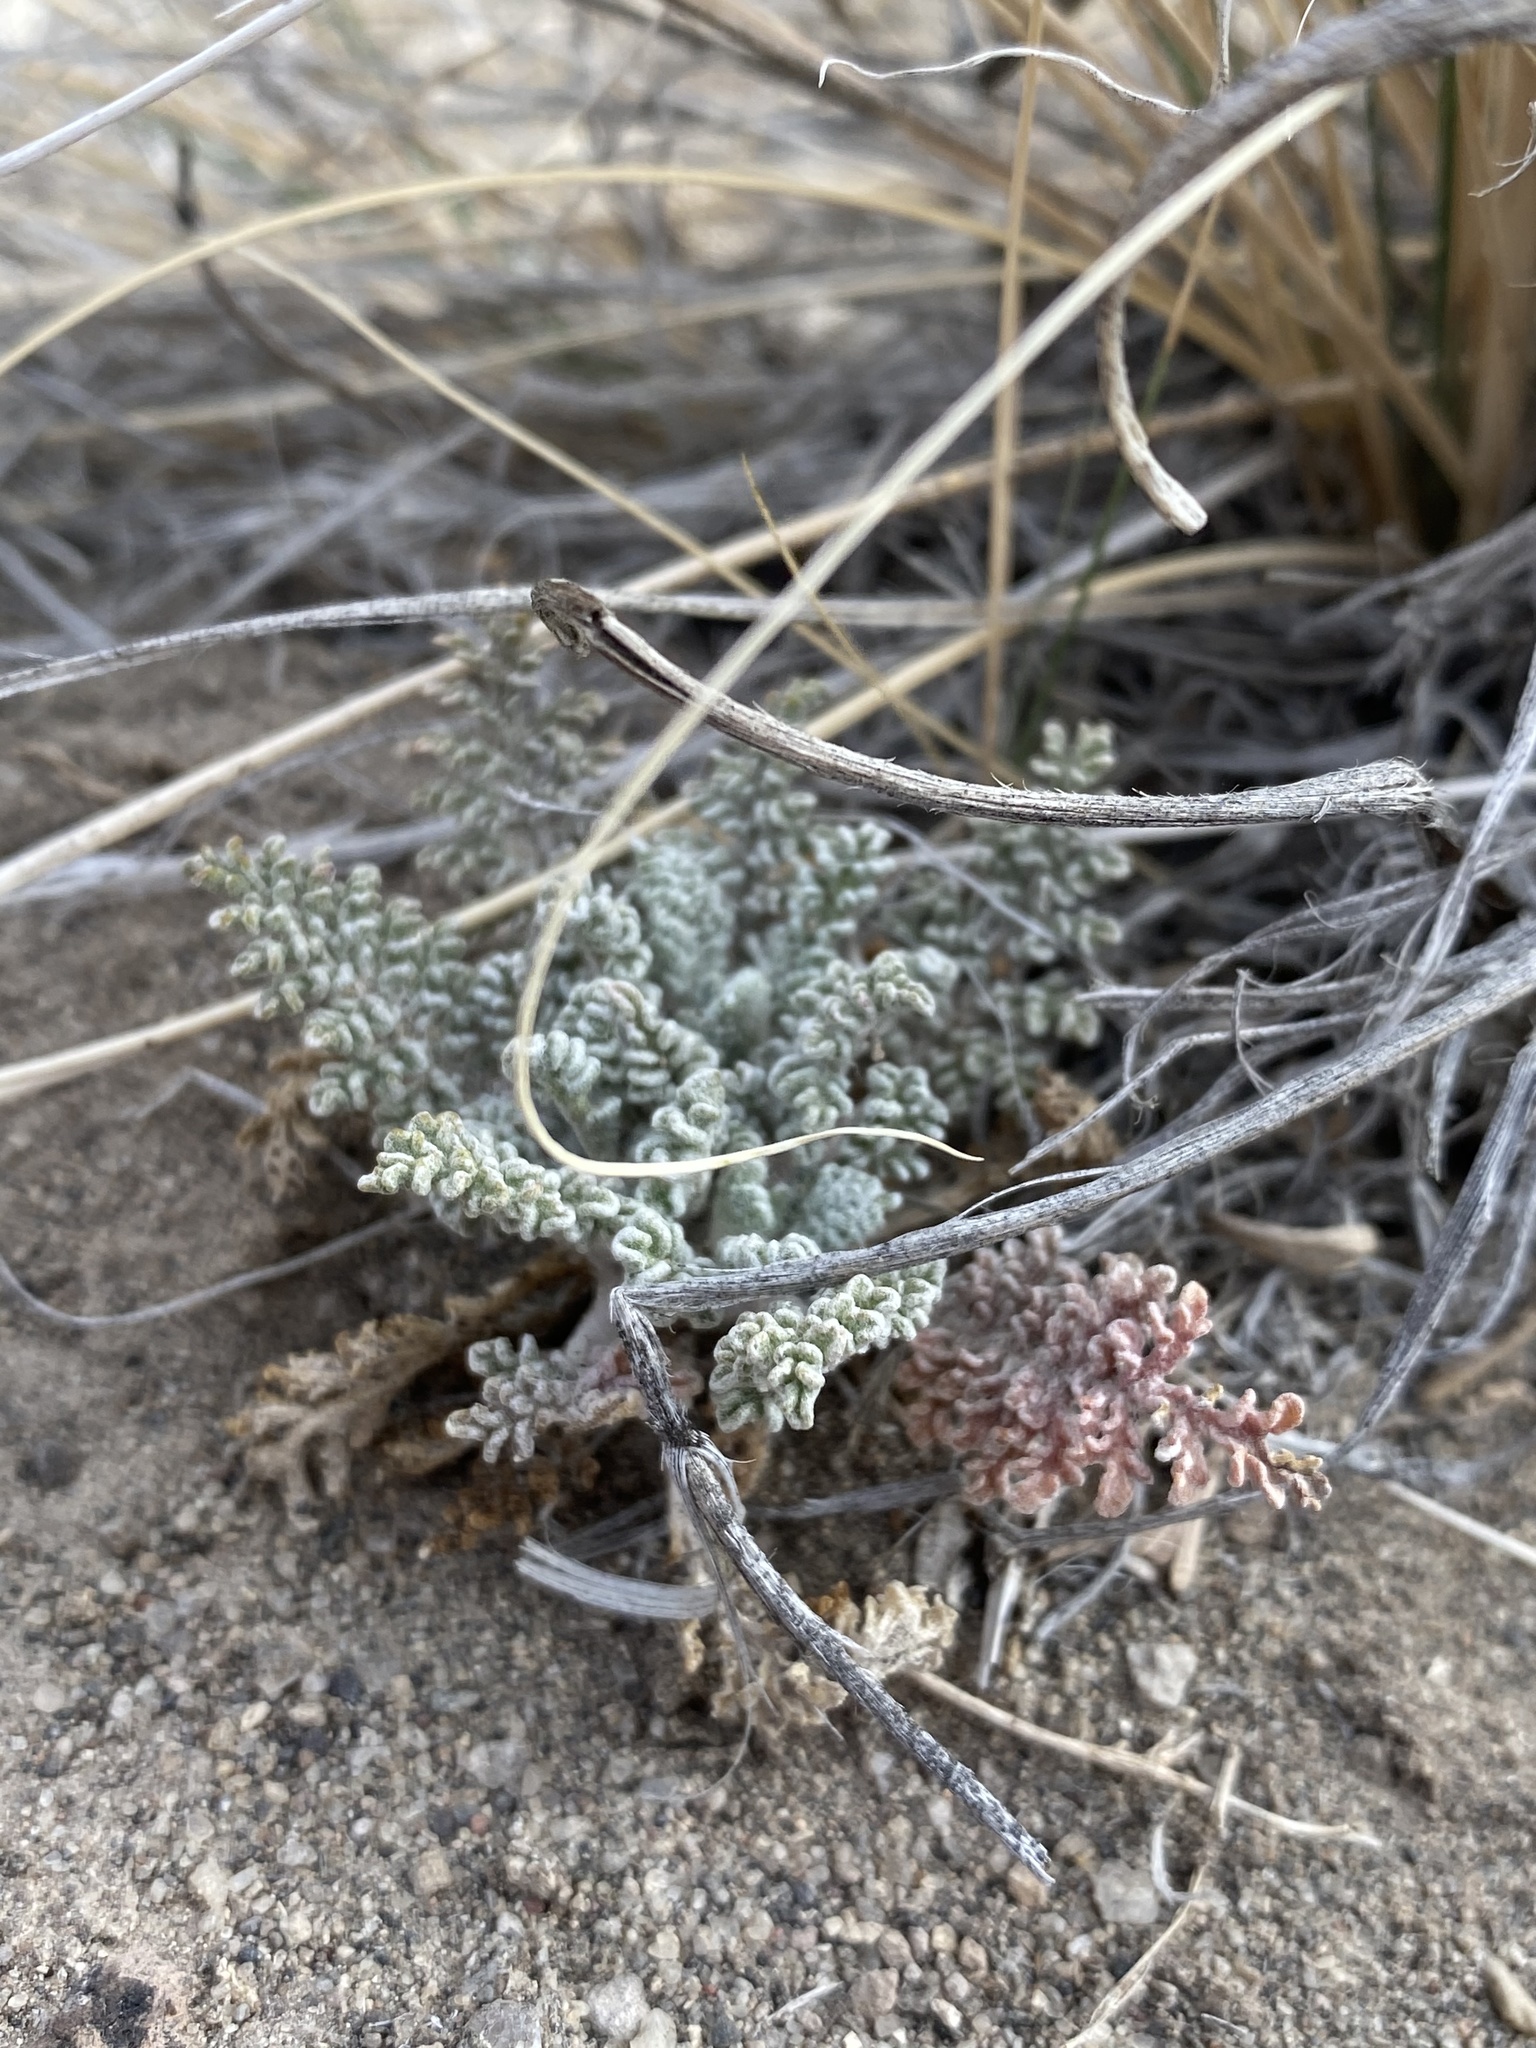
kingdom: Plantae
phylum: Tracheophyta
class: Magnoliopsida
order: Asterales
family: Asteraceae
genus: Chaenactis
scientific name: Chaenactis douglasii
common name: Hoary pincushion
